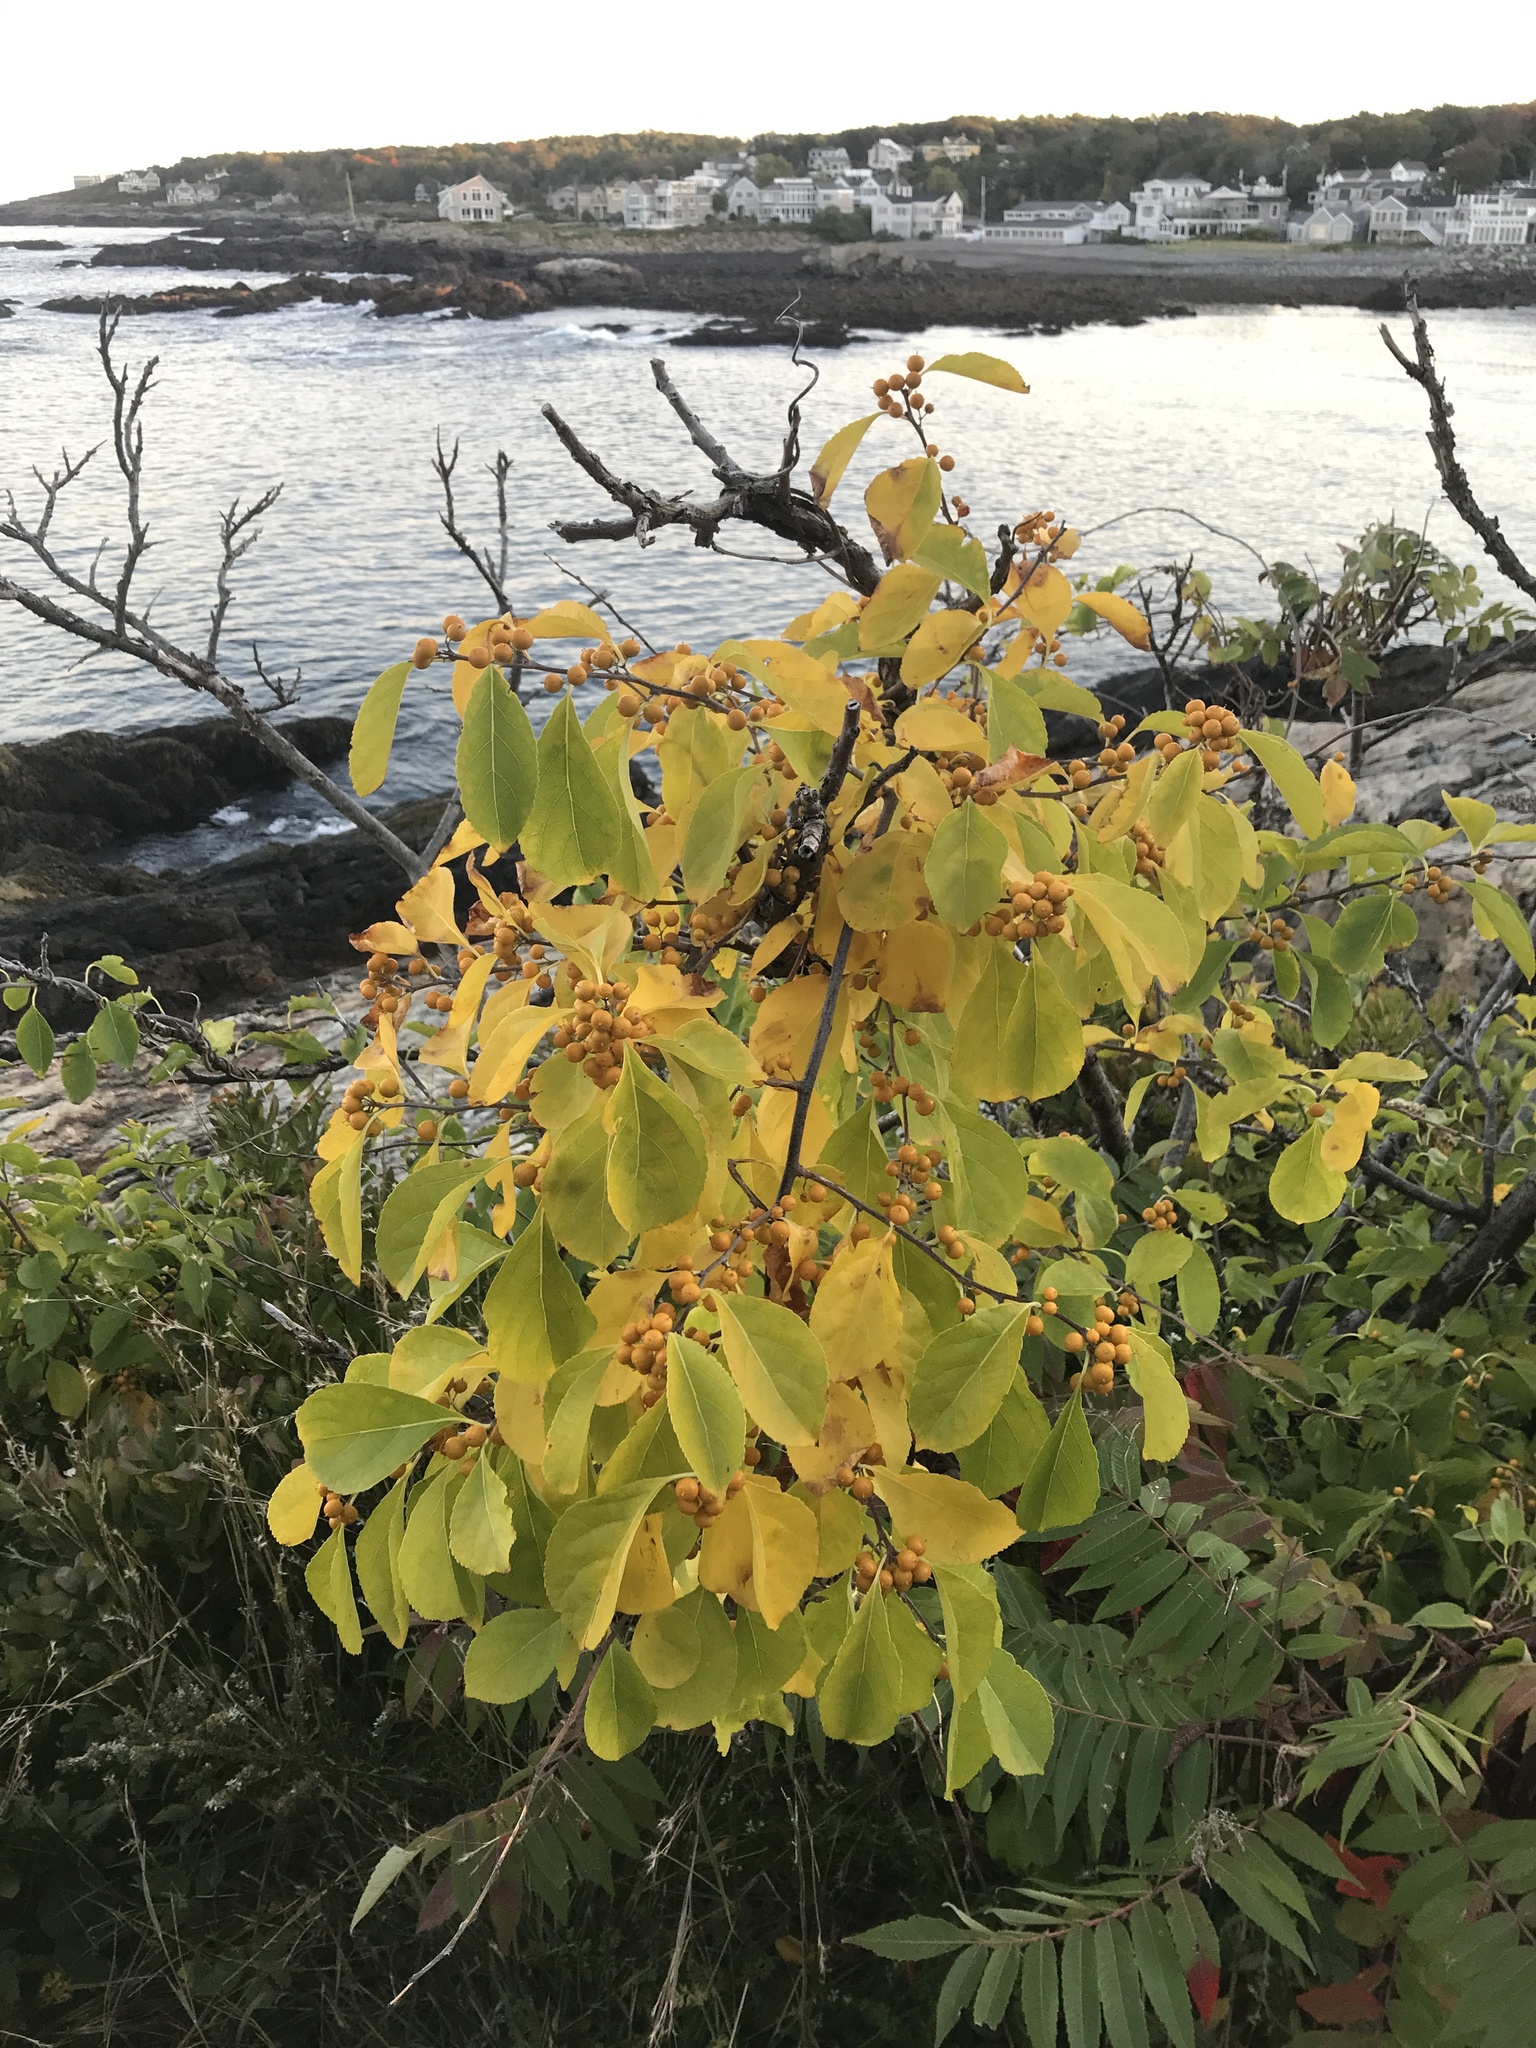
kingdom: Plantae
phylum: Tracheophyta
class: Magnoliopsida
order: Celastrales
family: Celastraceae
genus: Celastrus
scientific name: Celastrus orbiculatus
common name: Oriental bittersweet
